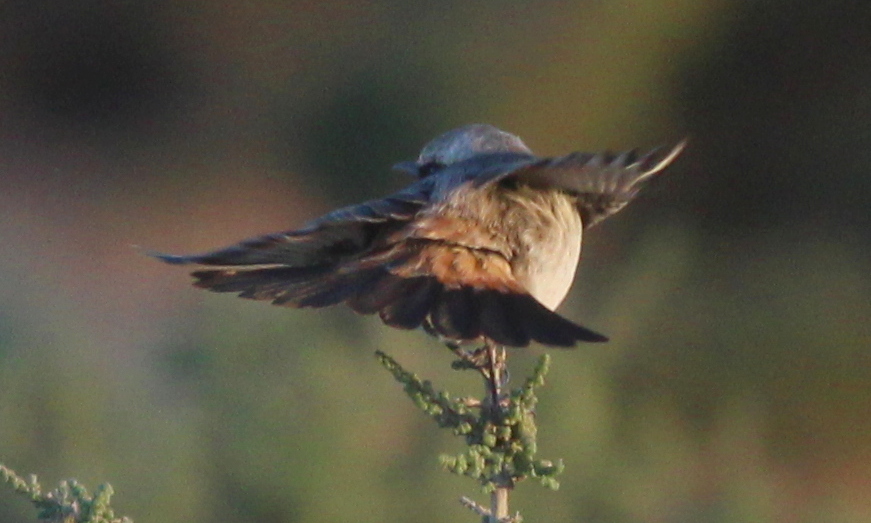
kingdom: Animalia
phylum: Chordata
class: Aves
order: Passeriformes
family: Muscicapidae
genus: Oenanthe
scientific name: Oenanthe moesta
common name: Red-rumped wheatear
